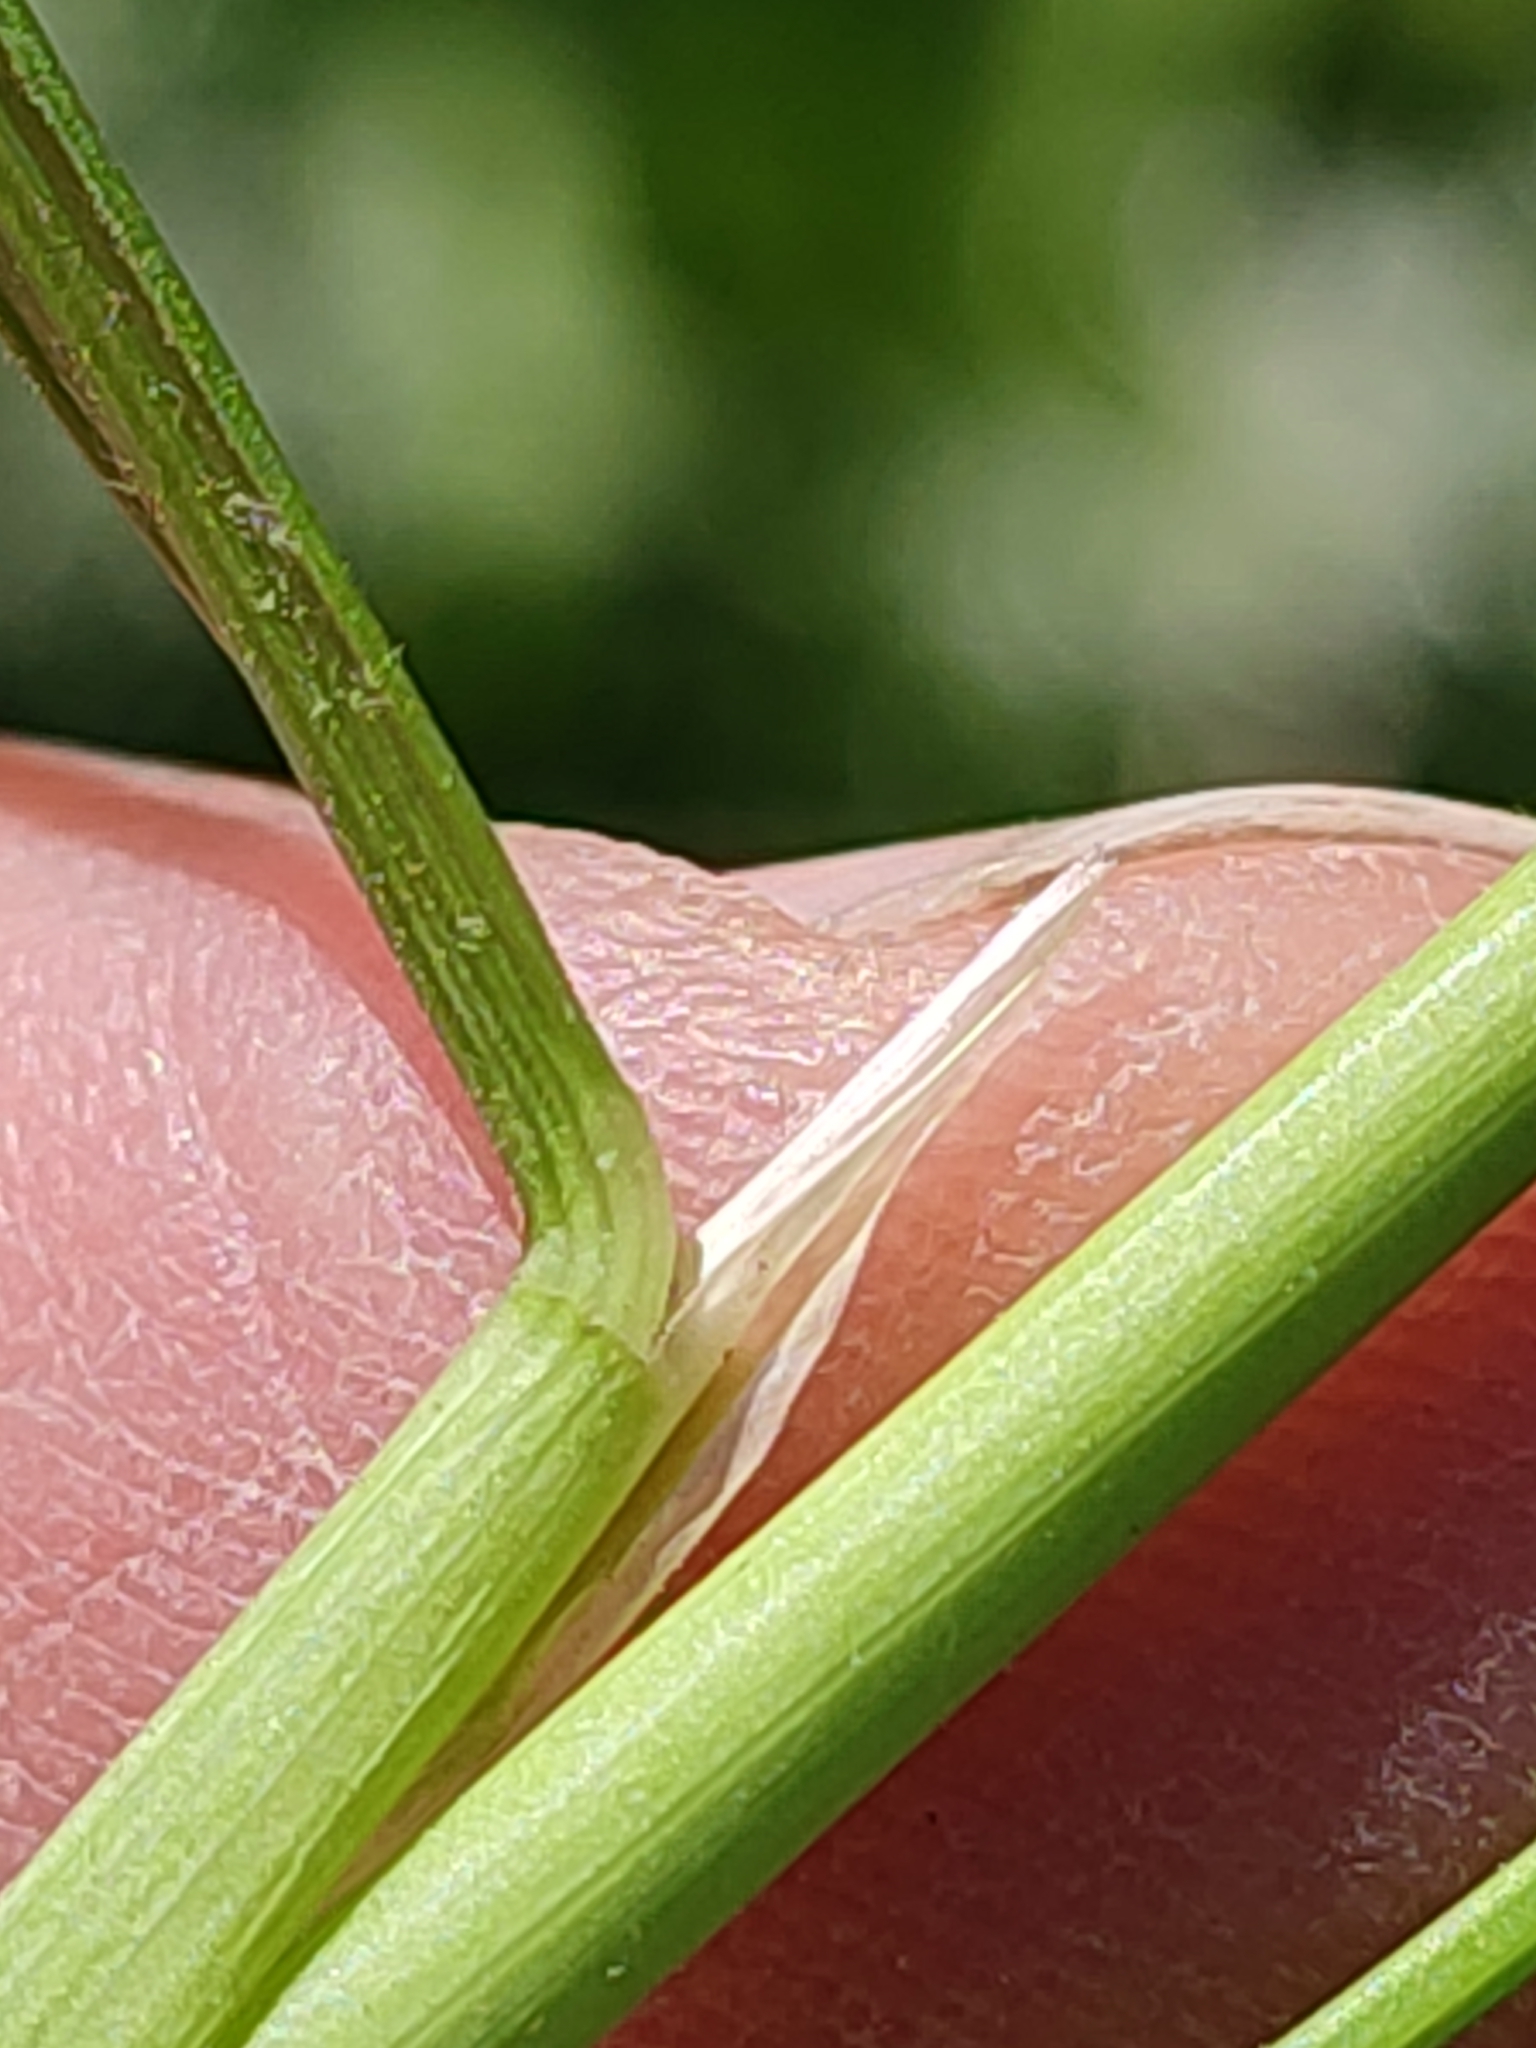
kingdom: Plantae
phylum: Tracheophyta
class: Liliopsida
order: Poales
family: Poaceae
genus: Deschampsia
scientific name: Deschampsia cespitosa
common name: Tufted hair-grass
